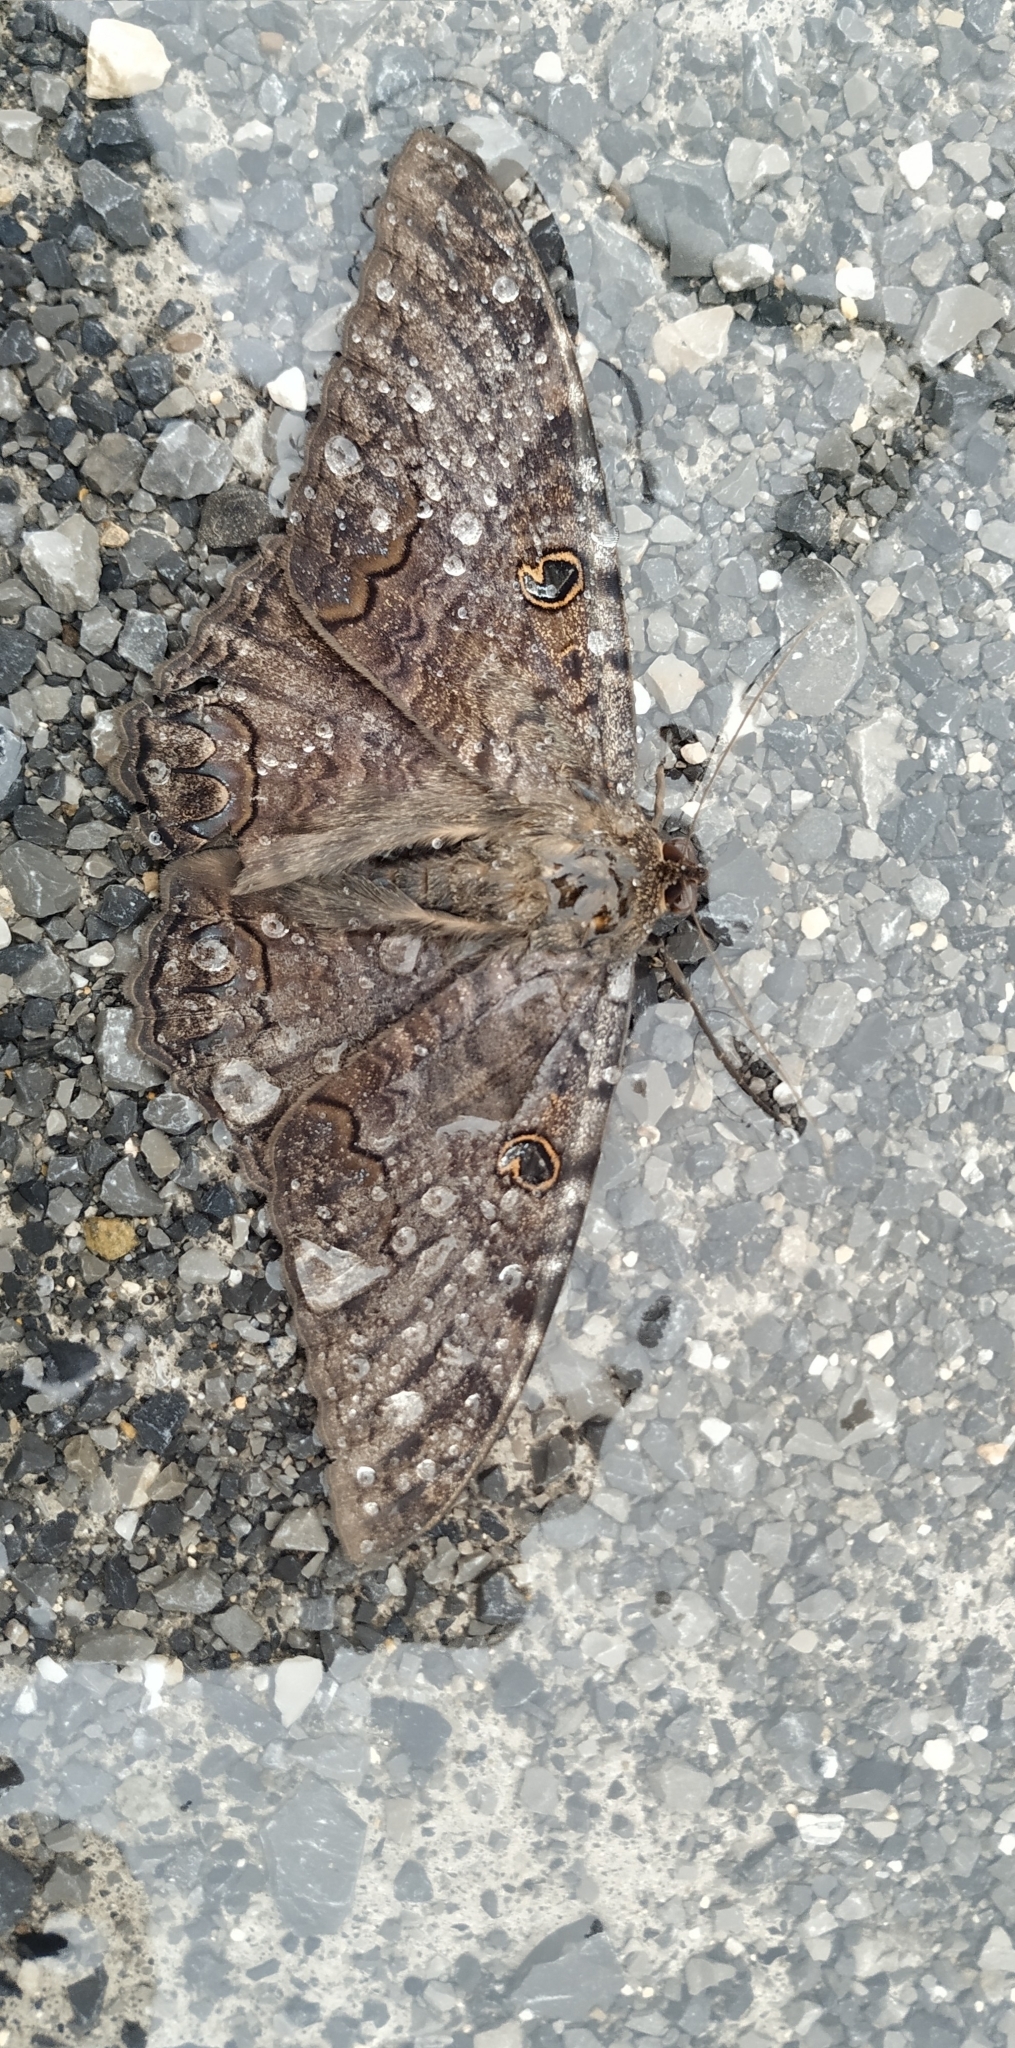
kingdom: Animalia
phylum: Arthropoda
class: Insecta
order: Lepidoptera
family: Erebidae
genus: Ascalapha
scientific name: Ascalapha odorata
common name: Black witch
